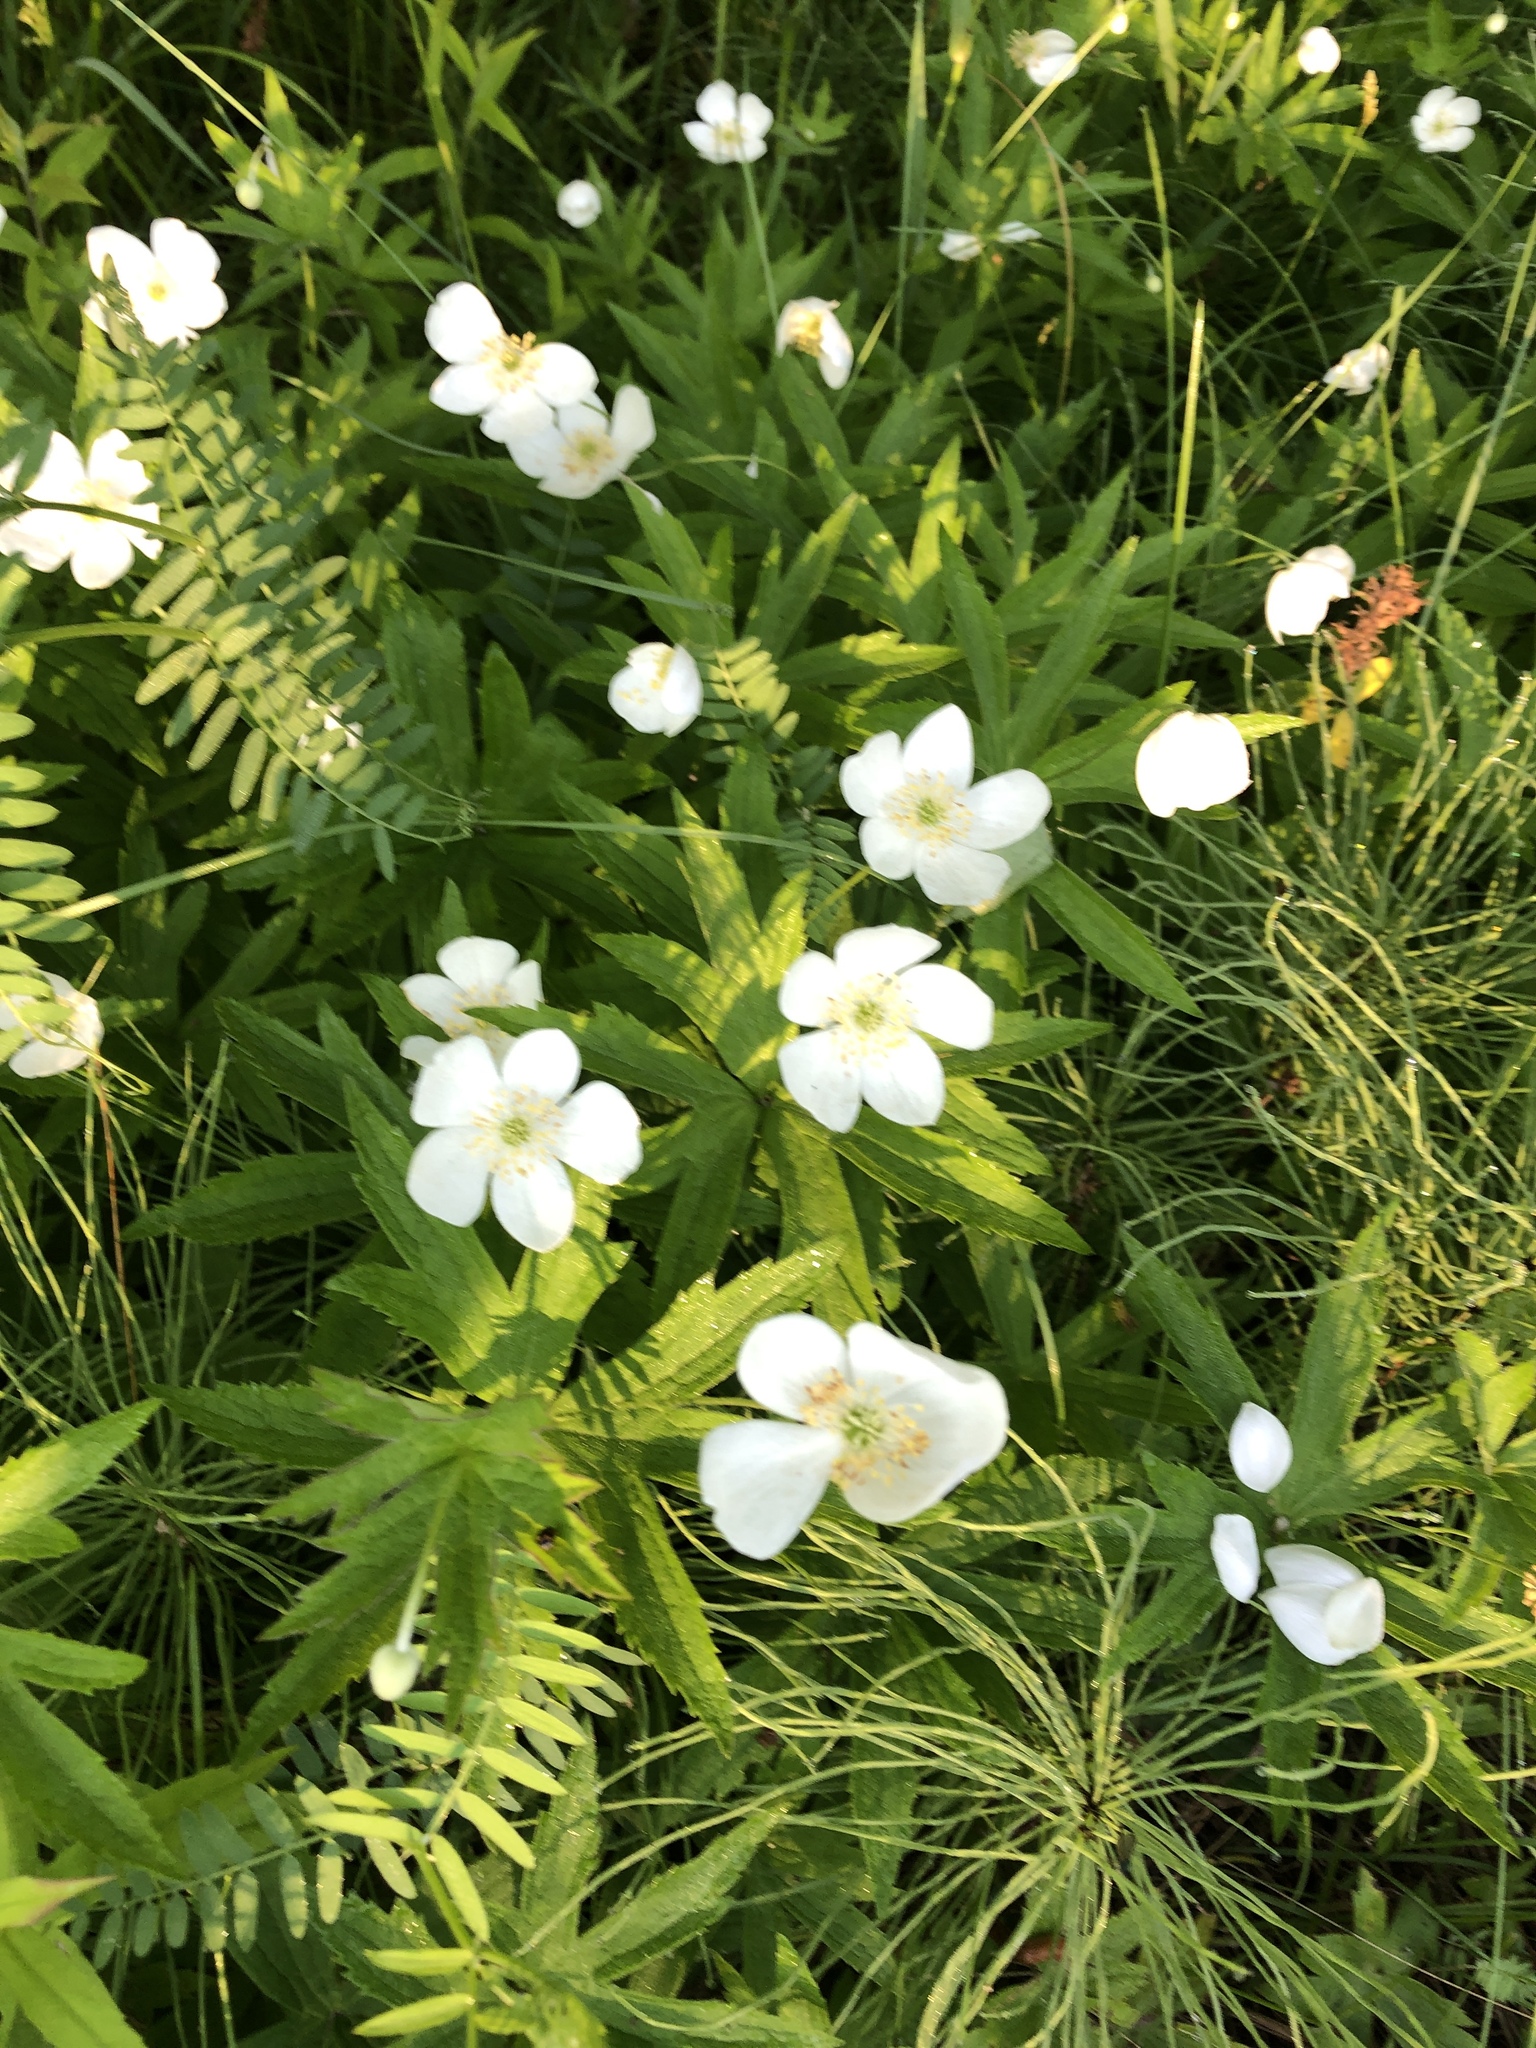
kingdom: Plantae
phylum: Tracheophyta
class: Magnoliopsida
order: Ranunculales
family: Ranunculaceae
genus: Anemonastrum
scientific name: Anemonastrum canadense
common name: Canada anemone
